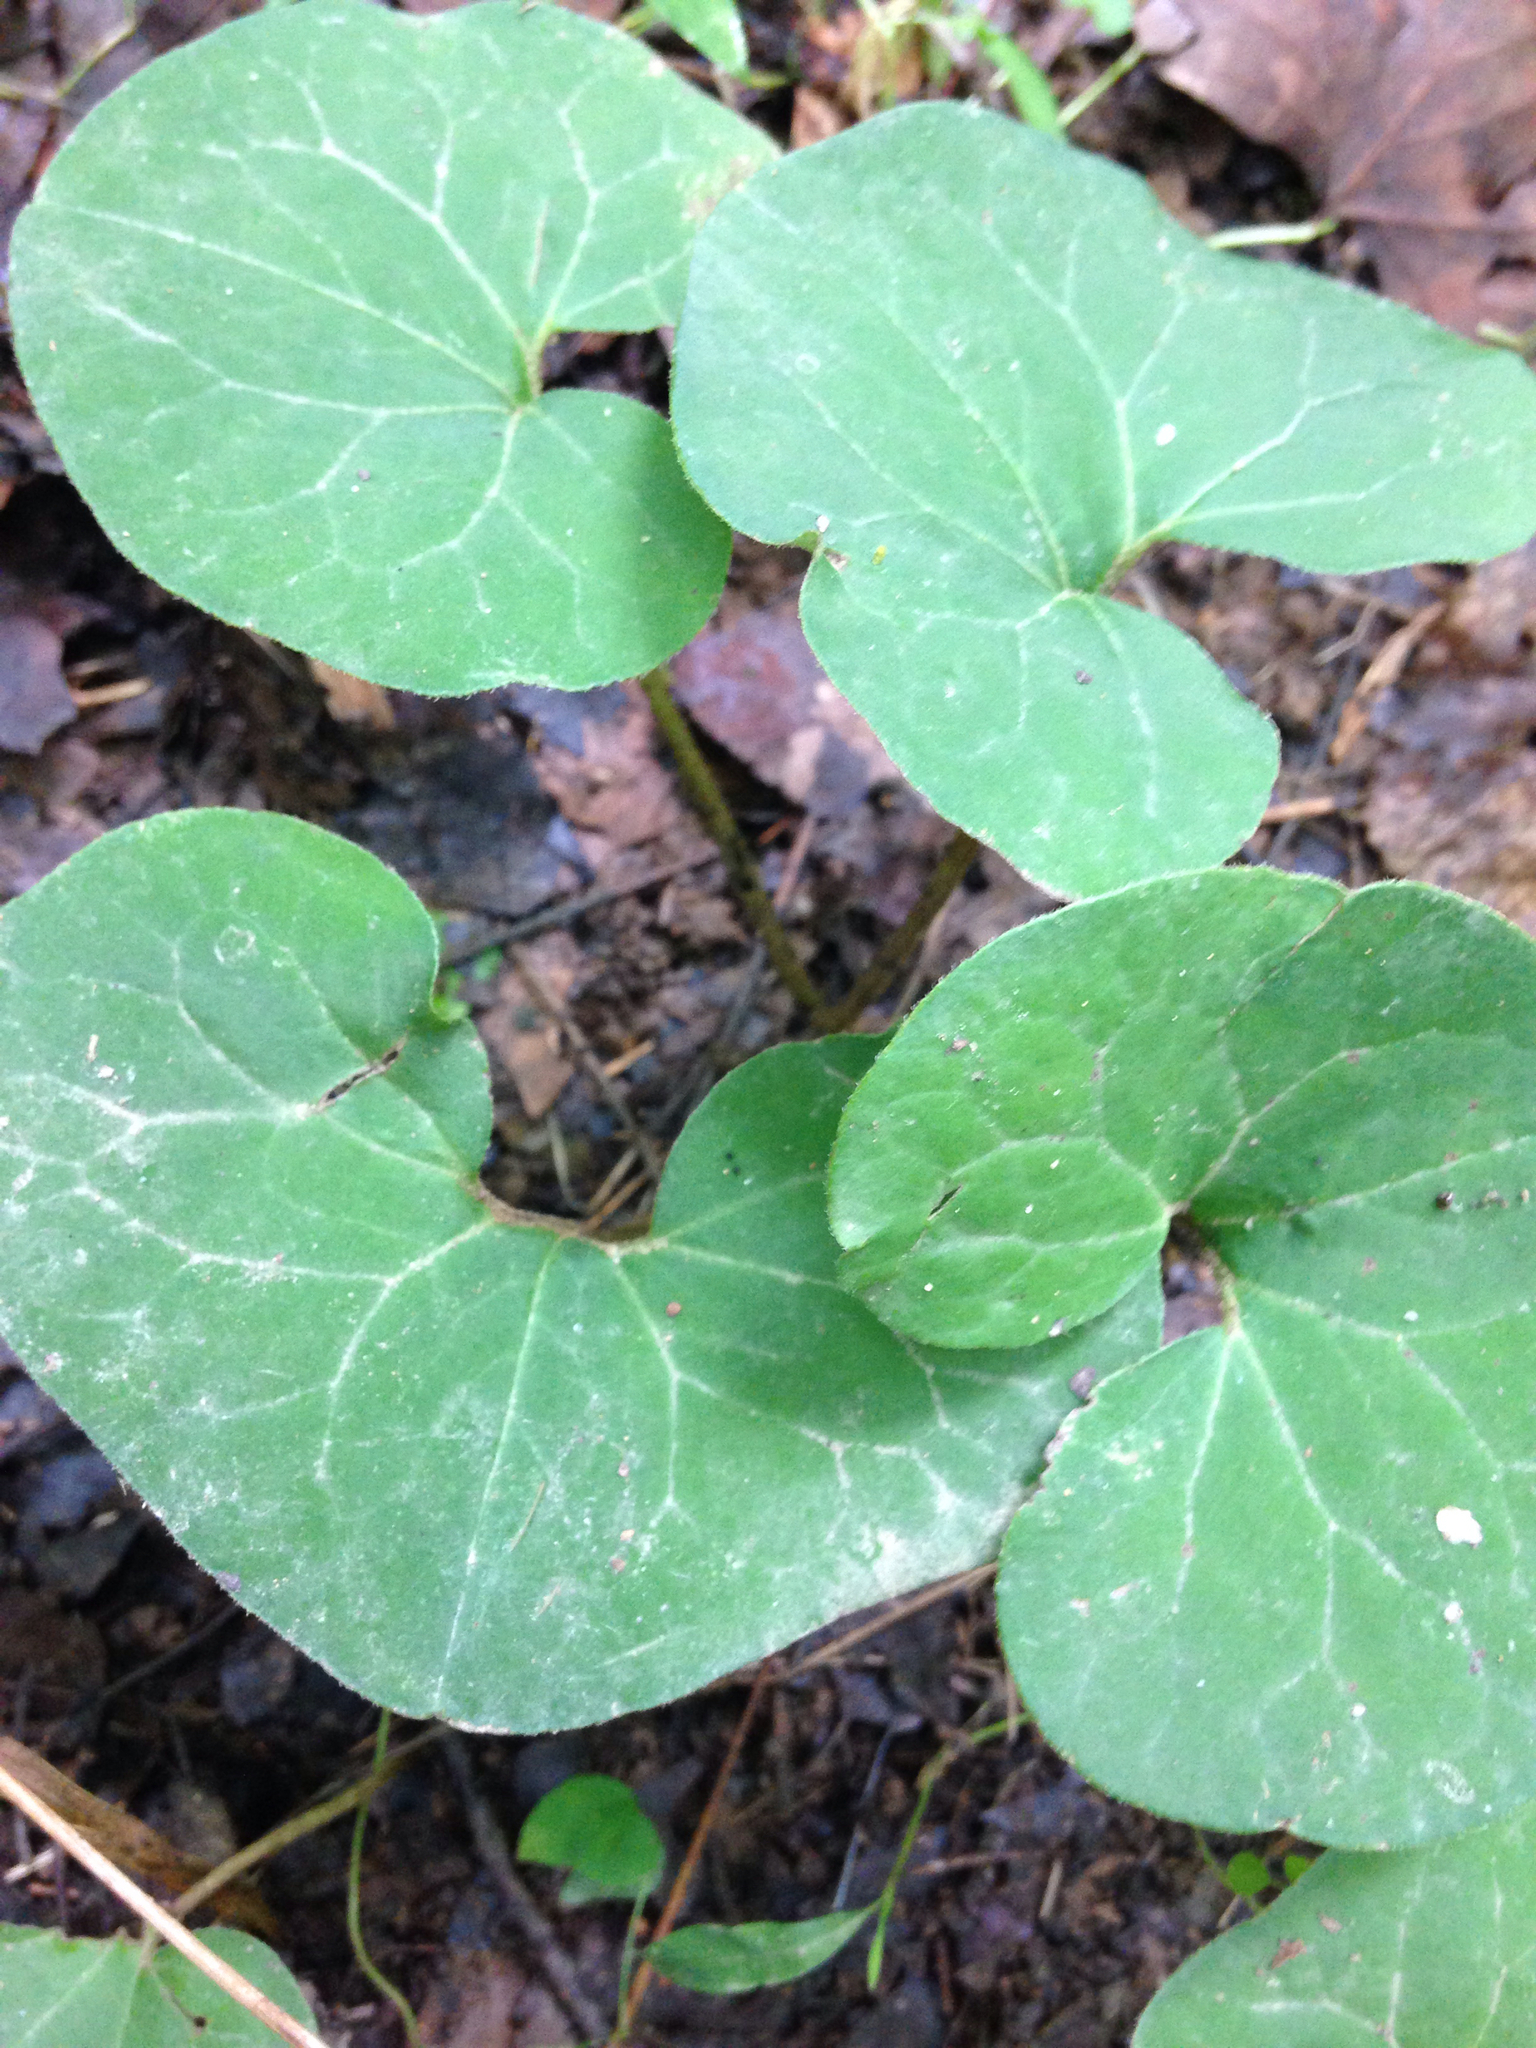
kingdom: Plantae
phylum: Tracheophyta
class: Magnoliopsida
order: Piperales
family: Aristolochiaceae
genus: Asarum
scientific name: Asarum canadense
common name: Wild ginger
